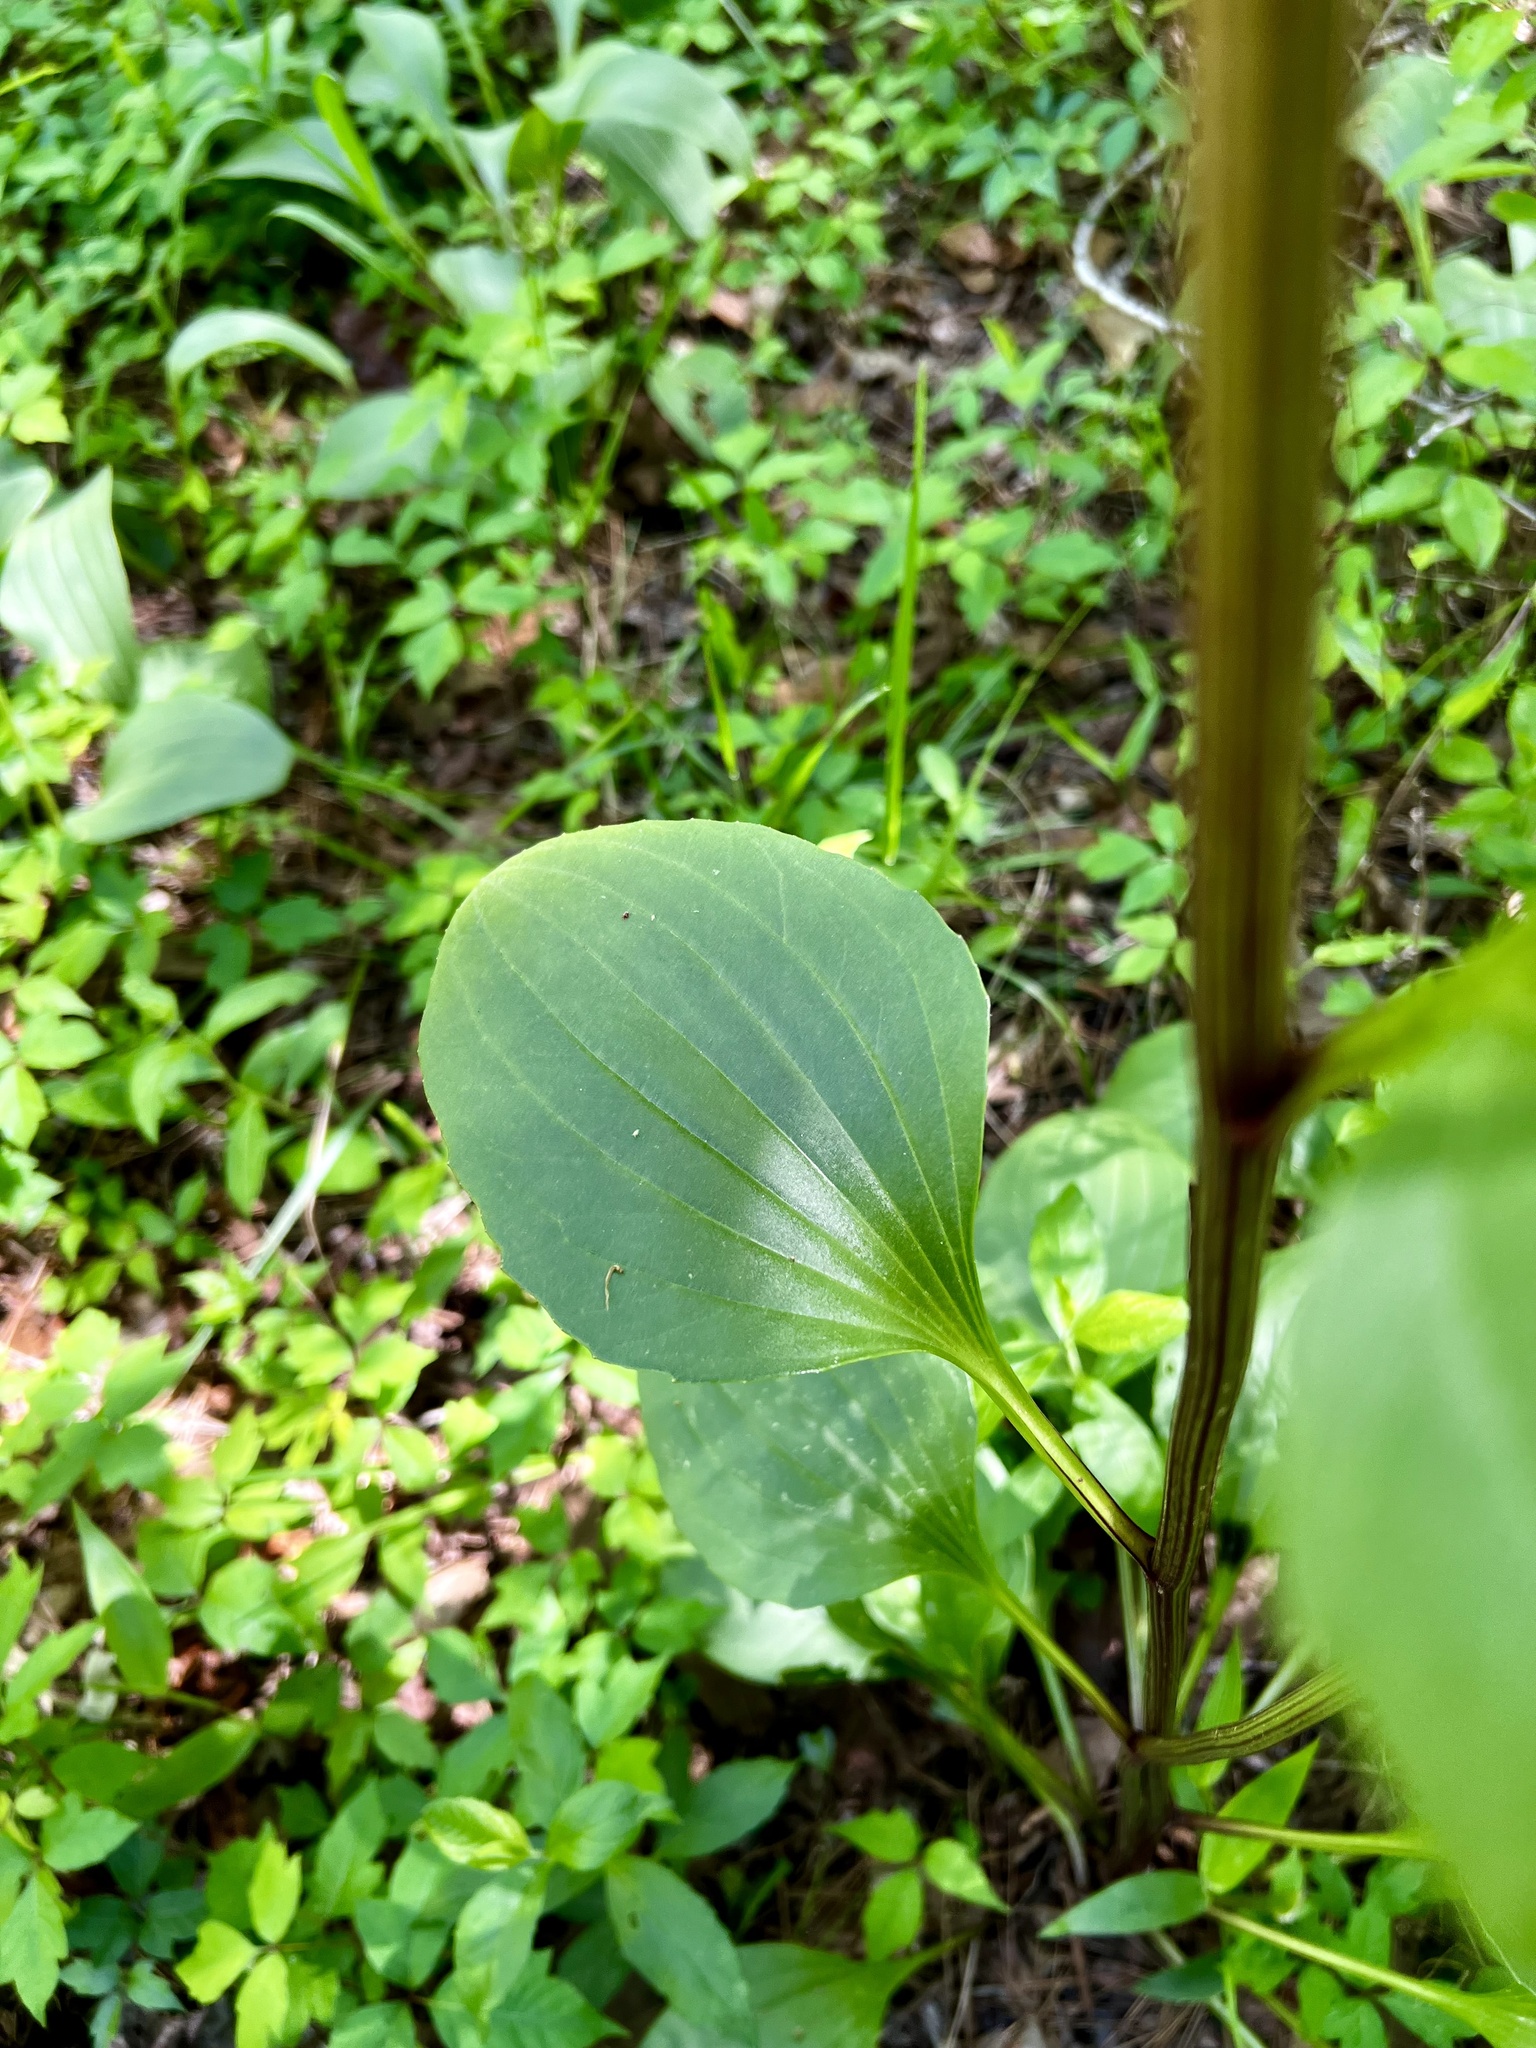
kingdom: Plantae
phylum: Tracheophyta
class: Magnoliopsida
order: Asterales
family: Asteraceae
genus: Arnoglossum
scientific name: Arnoglossum plantagineum
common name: Groove-stemmed indian-plantain
